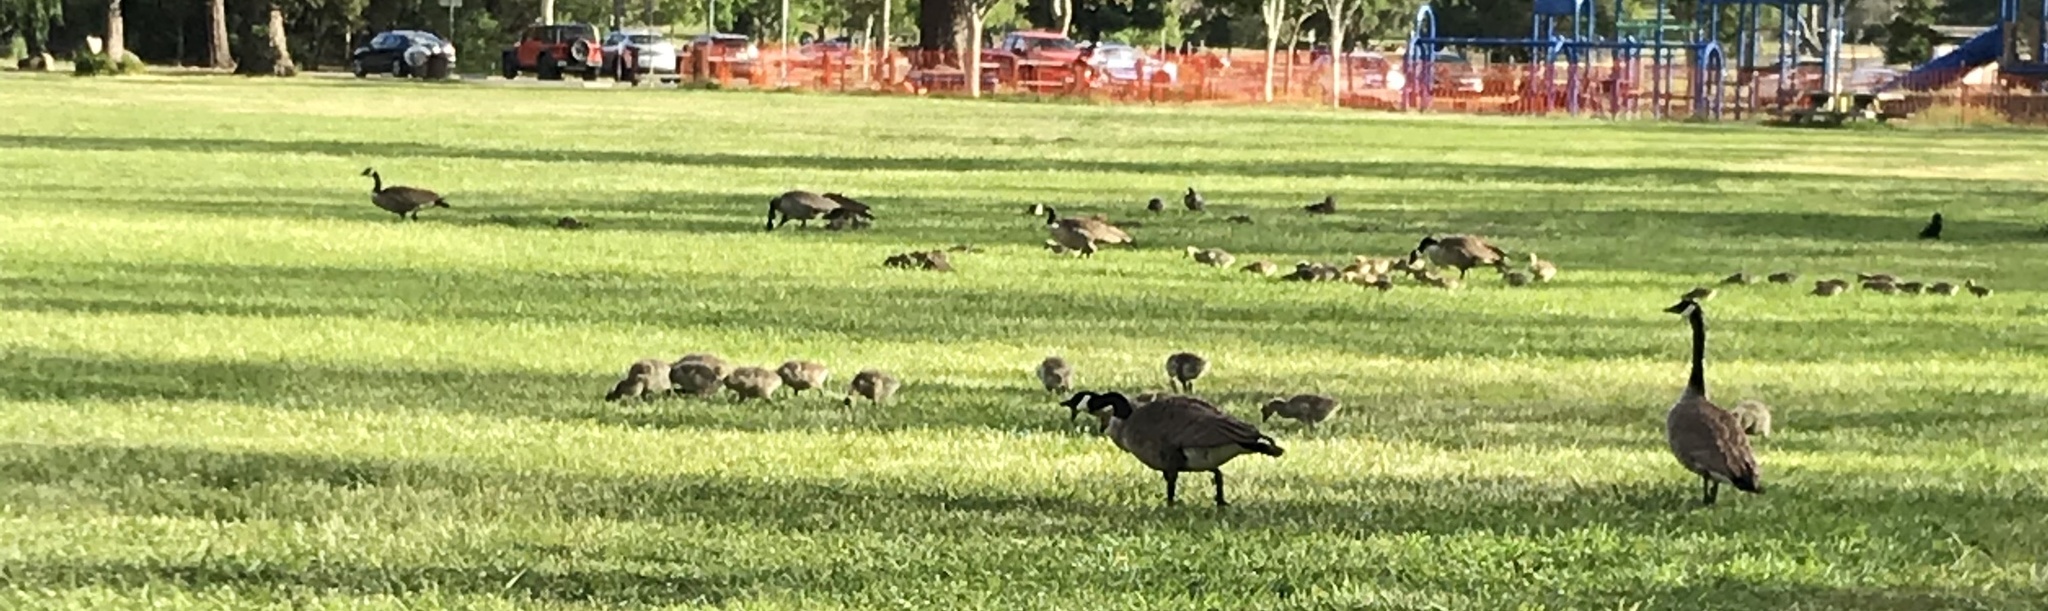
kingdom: Animalia
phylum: Chordata
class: Aves
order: Anseriformes
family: Anatidae
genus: Branta
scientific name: Branta canadensis
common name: Canada goose
